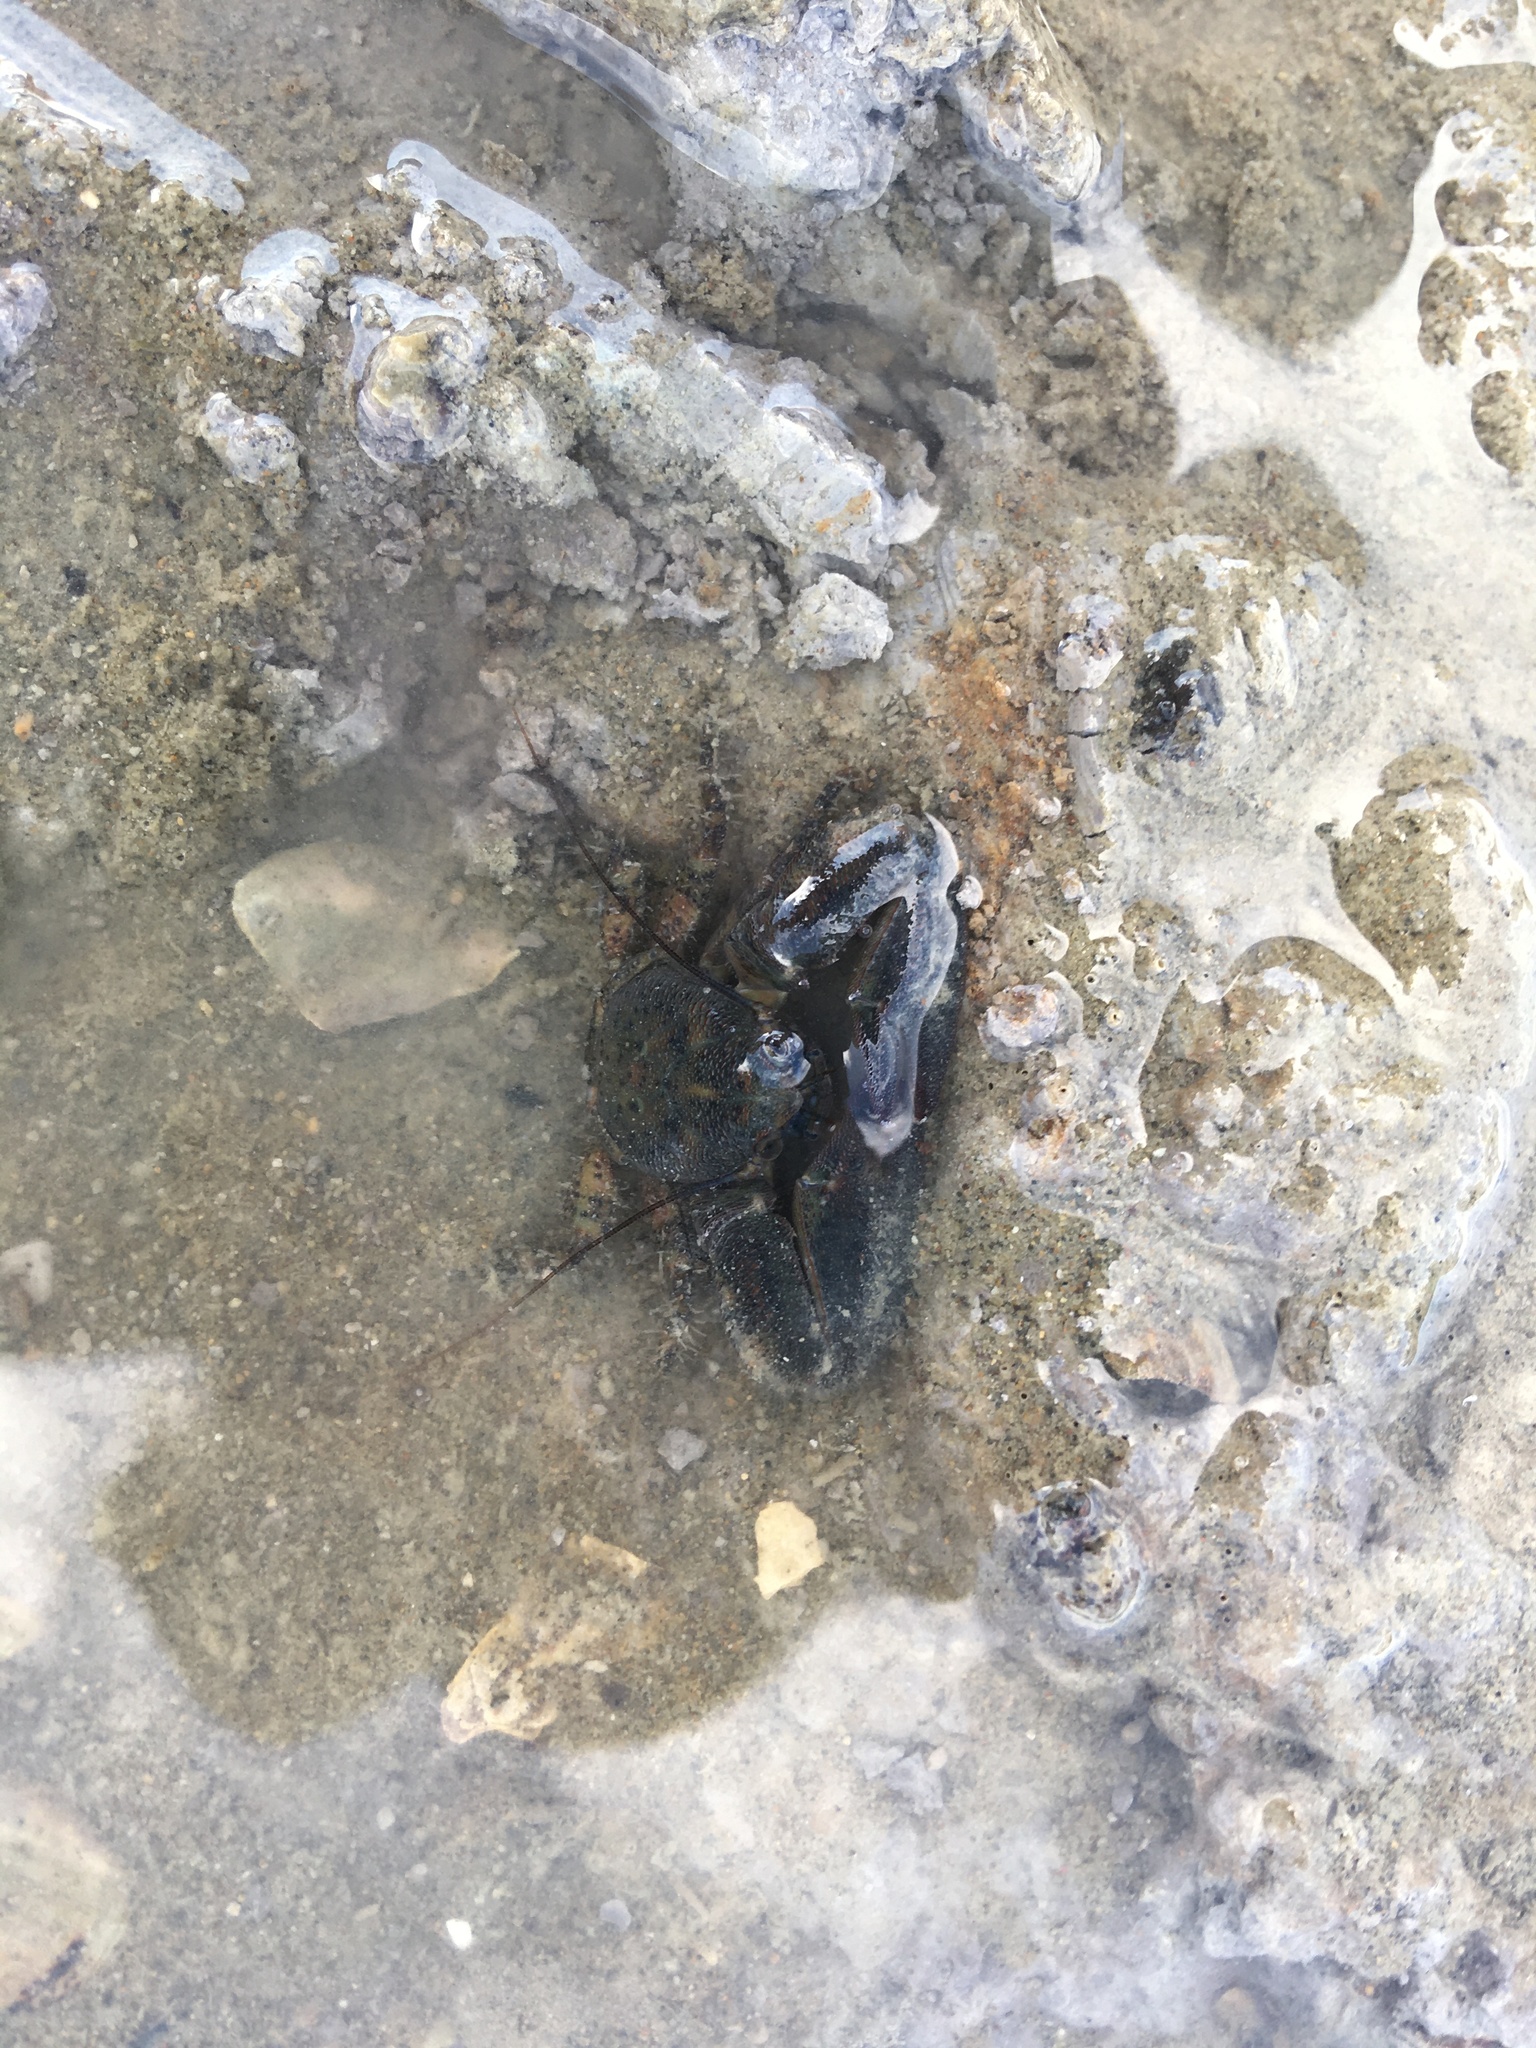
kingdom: Animalia
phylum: Arthropoda
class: Malacostraca
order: Decapoda
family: Porcellanidae
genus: Petrolisthes
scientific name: Petrolisthes elongatus
